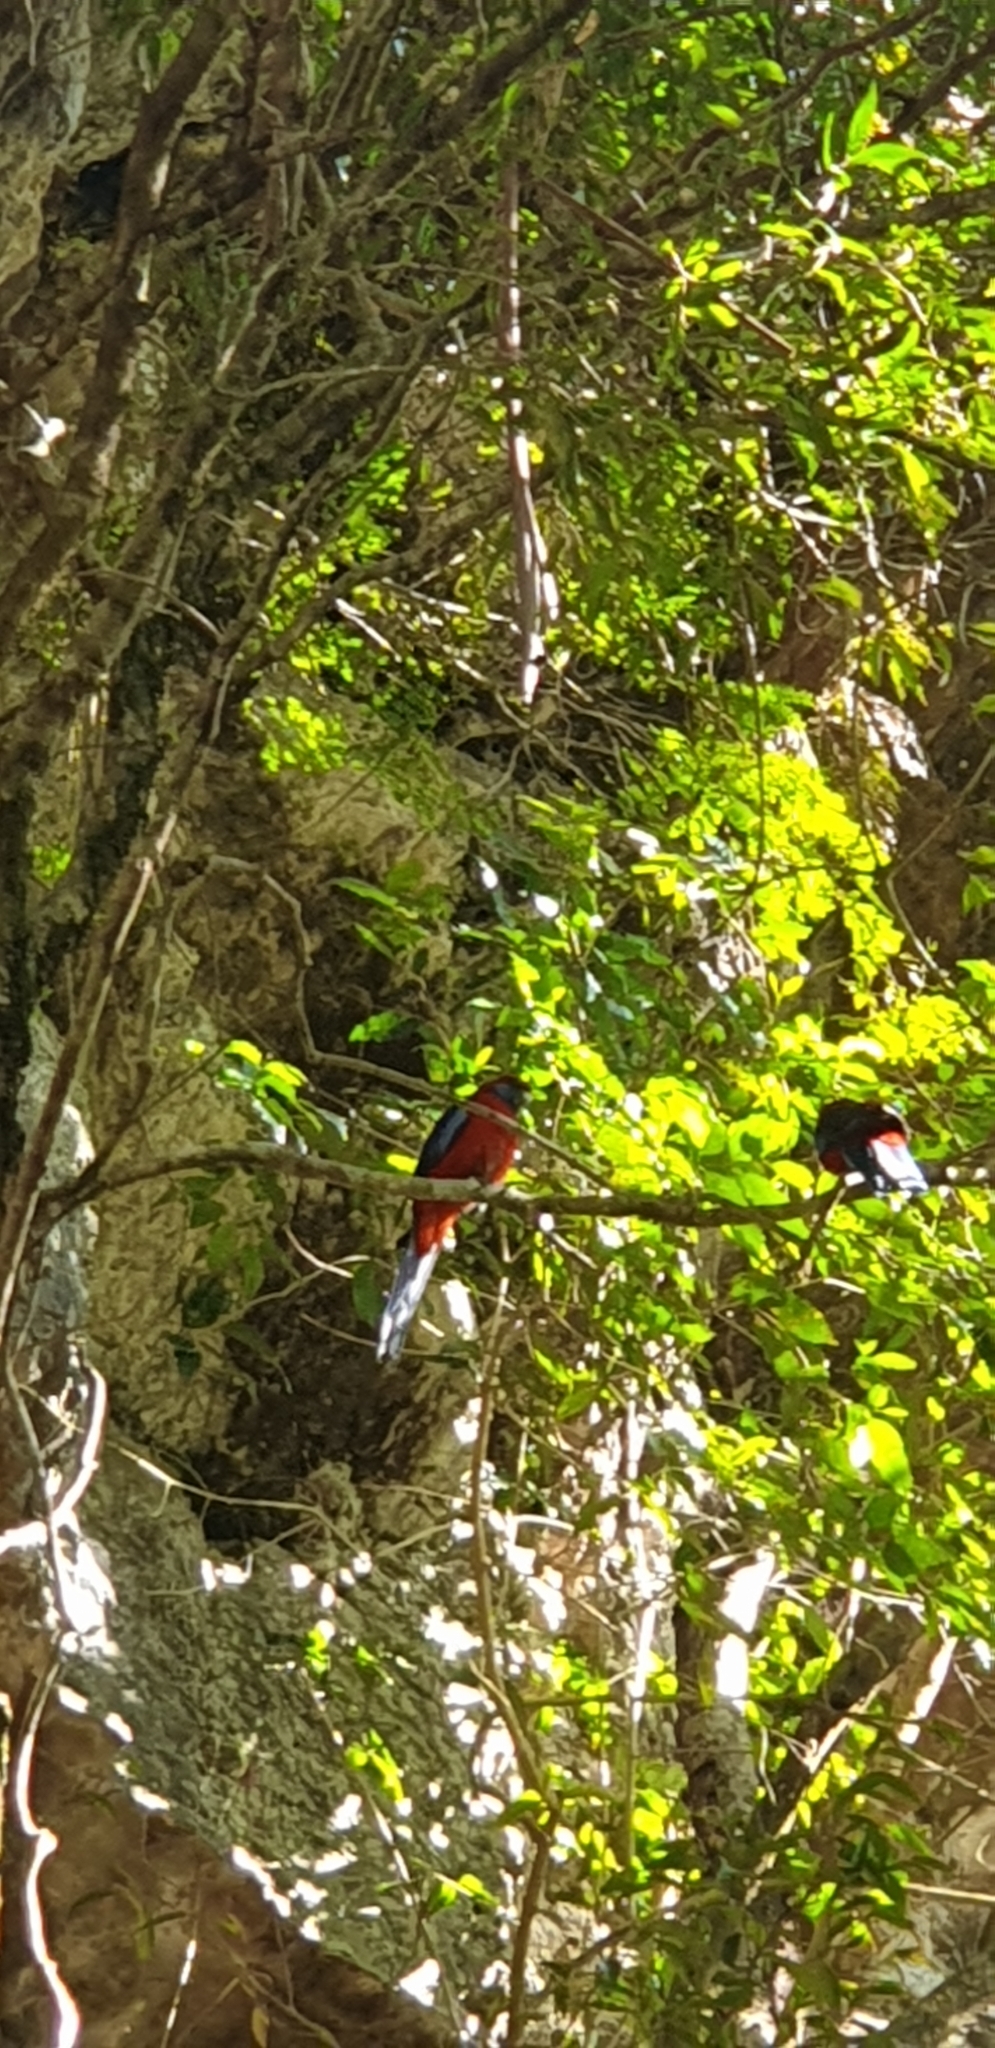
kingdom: Animalia
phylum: Chordata
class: Aves
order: Psittaciformes
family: Psittacidae
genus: Platycercus
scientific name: Platycercus elegans
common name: Crimson rosella
